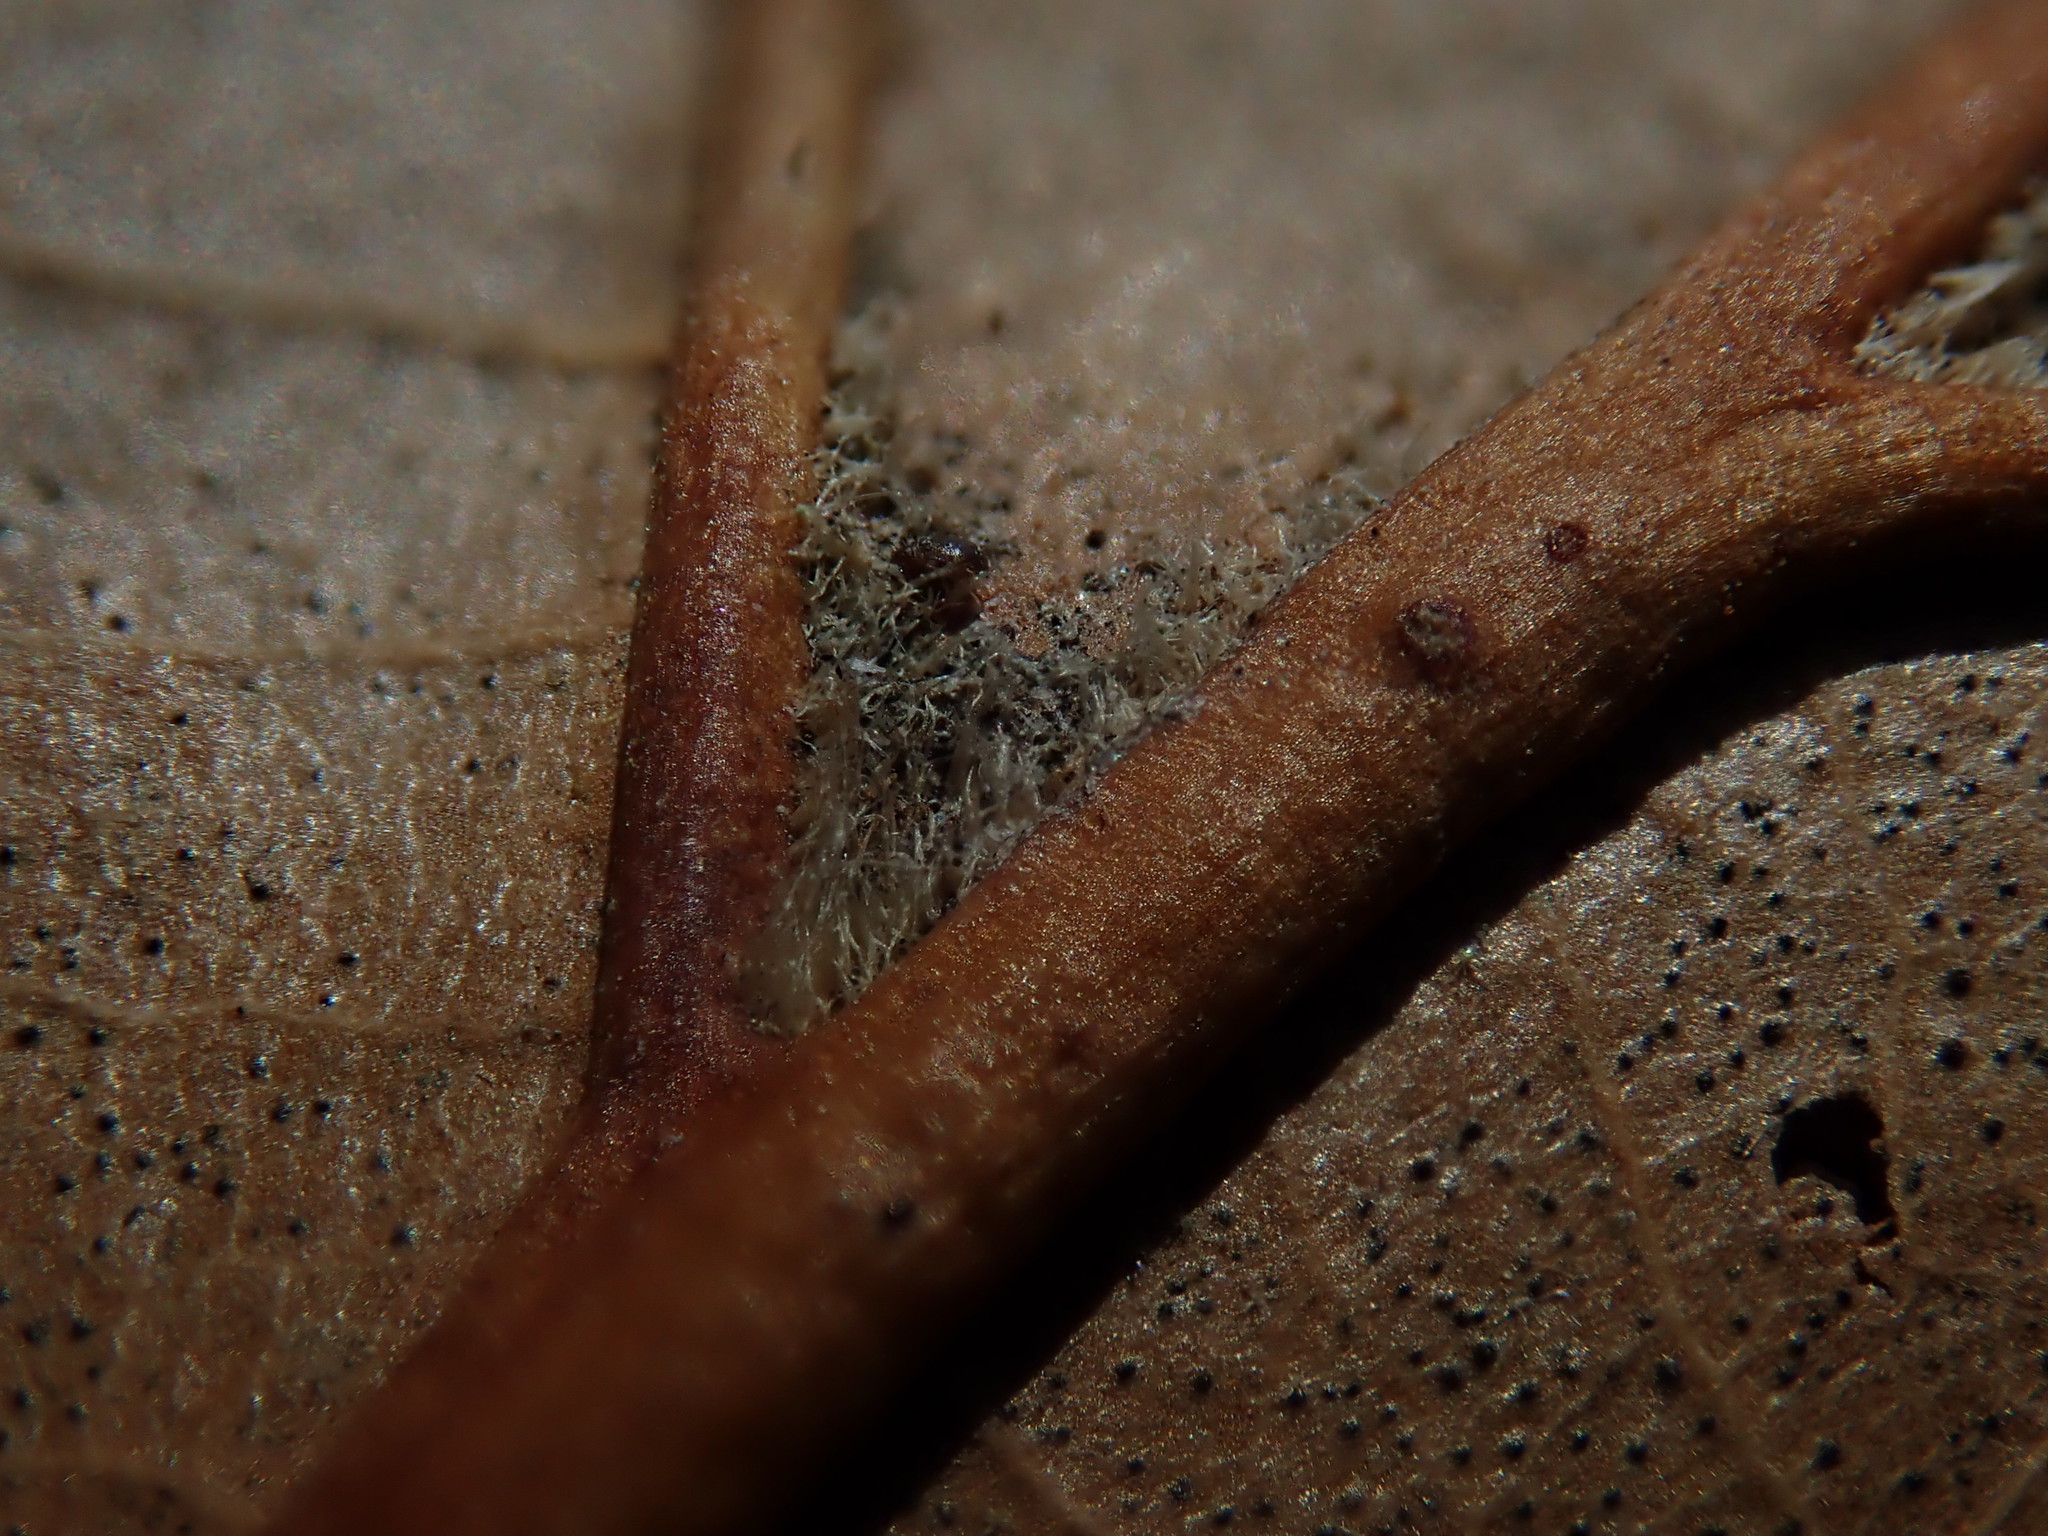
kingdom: Plantae
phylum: Tracheophyta
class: Magnoliopsida
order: Fagales
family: Fagaceae
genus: Quercus
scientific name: Quercus velutina
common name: Black oak
